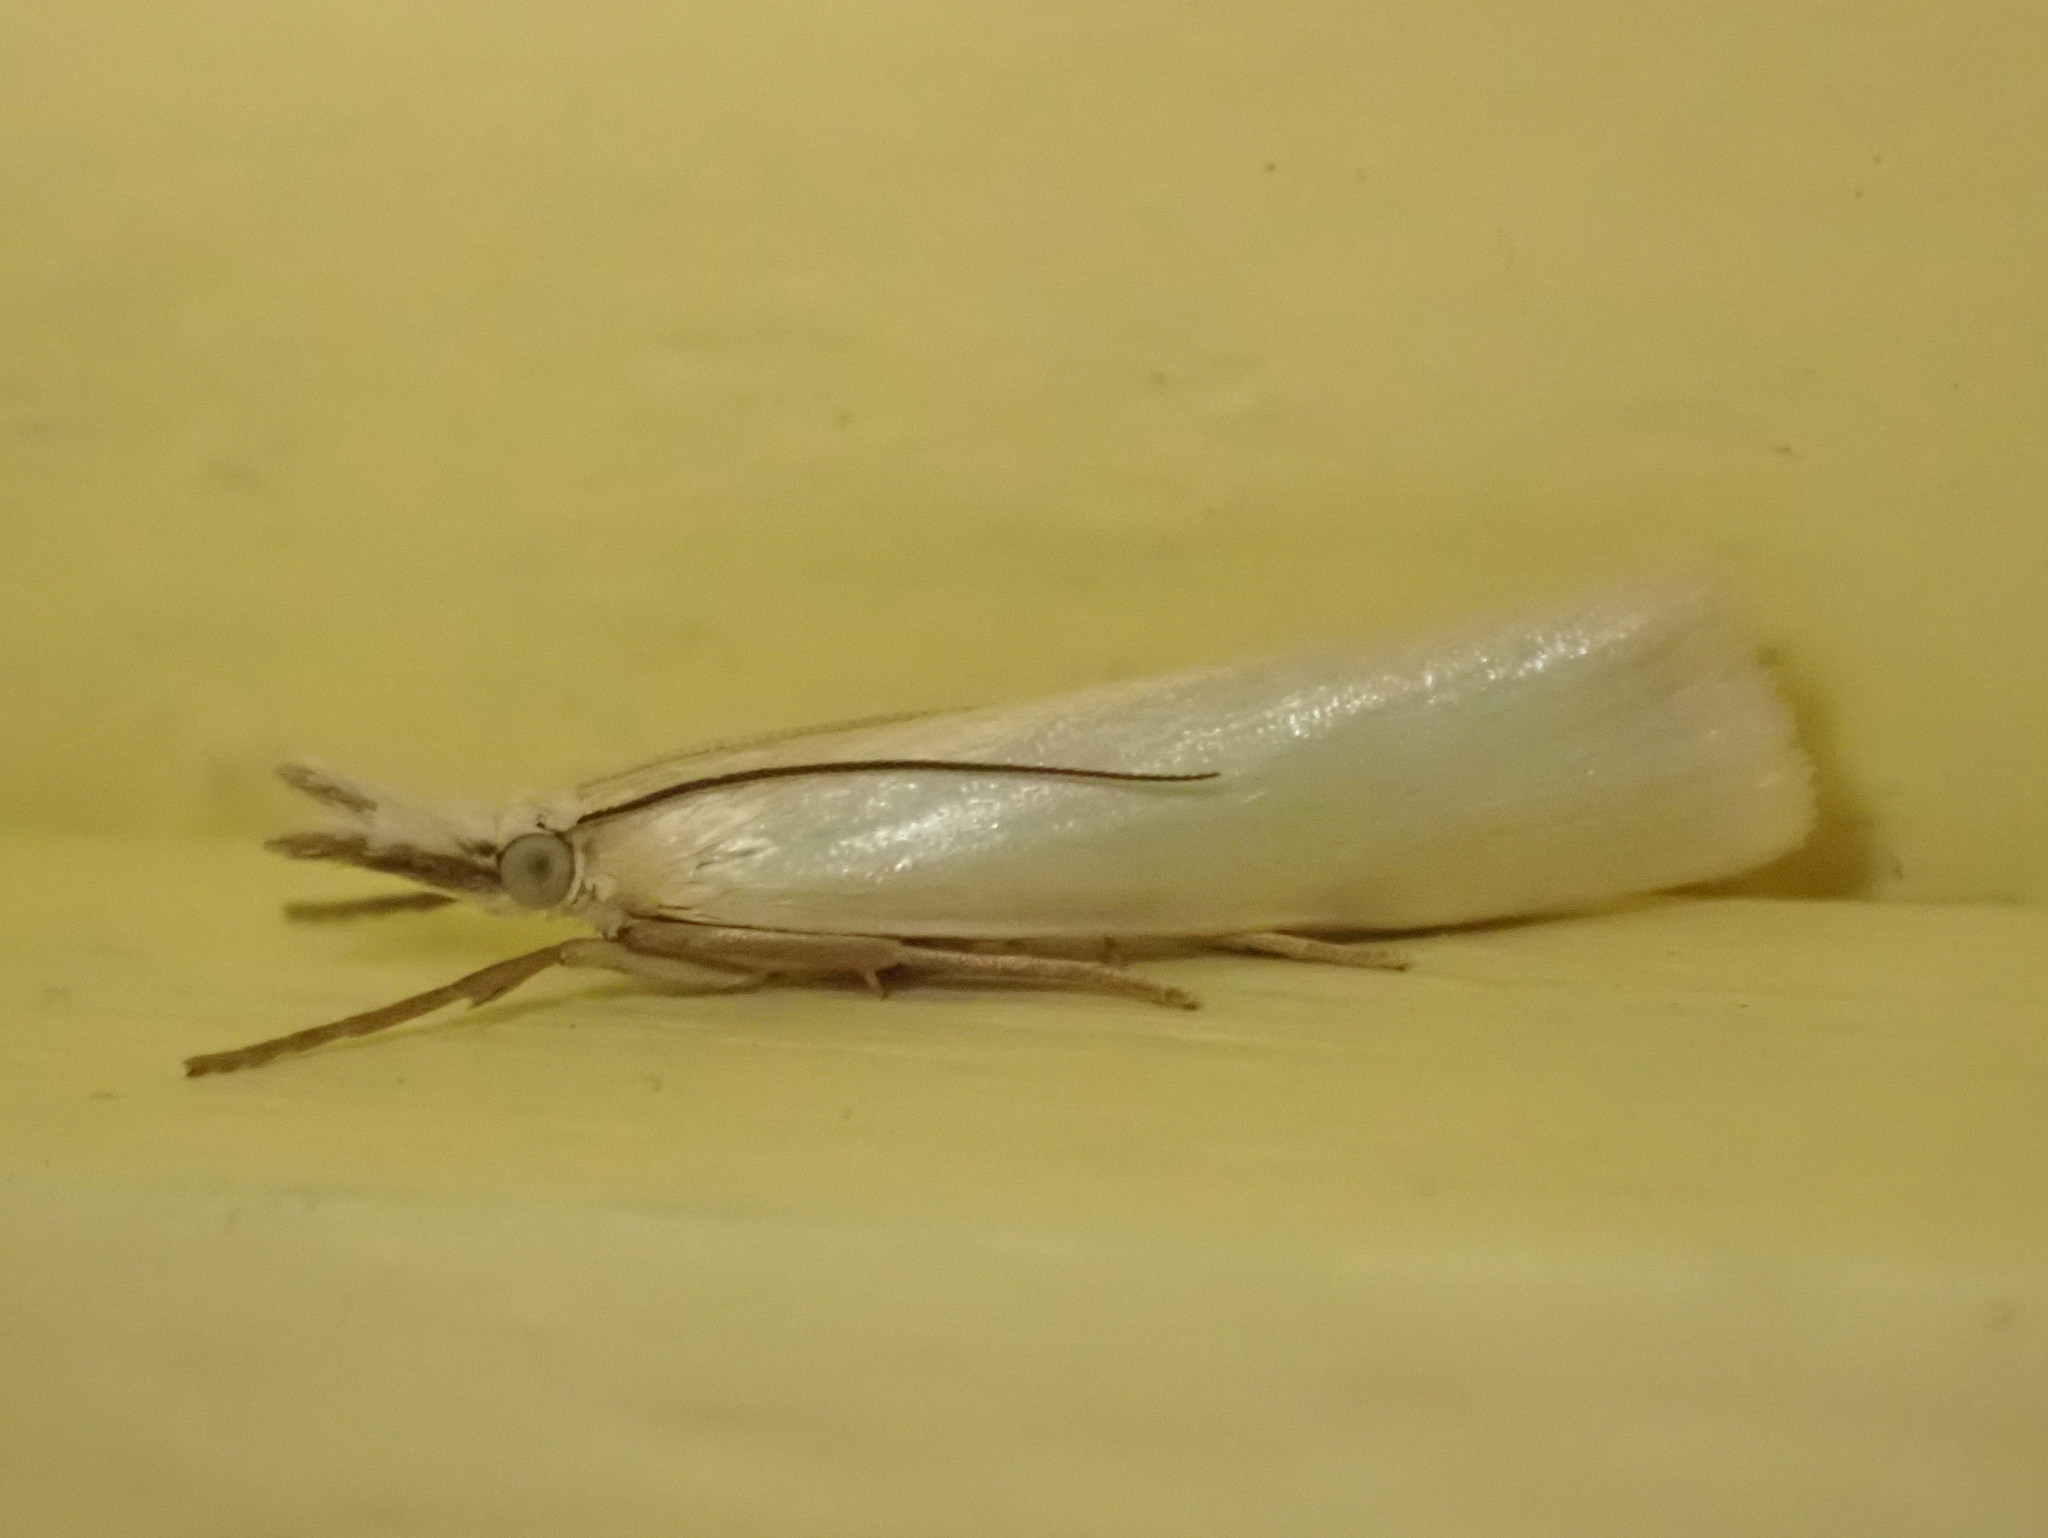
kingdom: Animalia
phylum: Arthropoda
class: Insecta
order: Lepidoptera
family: Crambidae
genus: Crambus
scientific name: Crambus perlellus
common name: Yellow satin veneer
